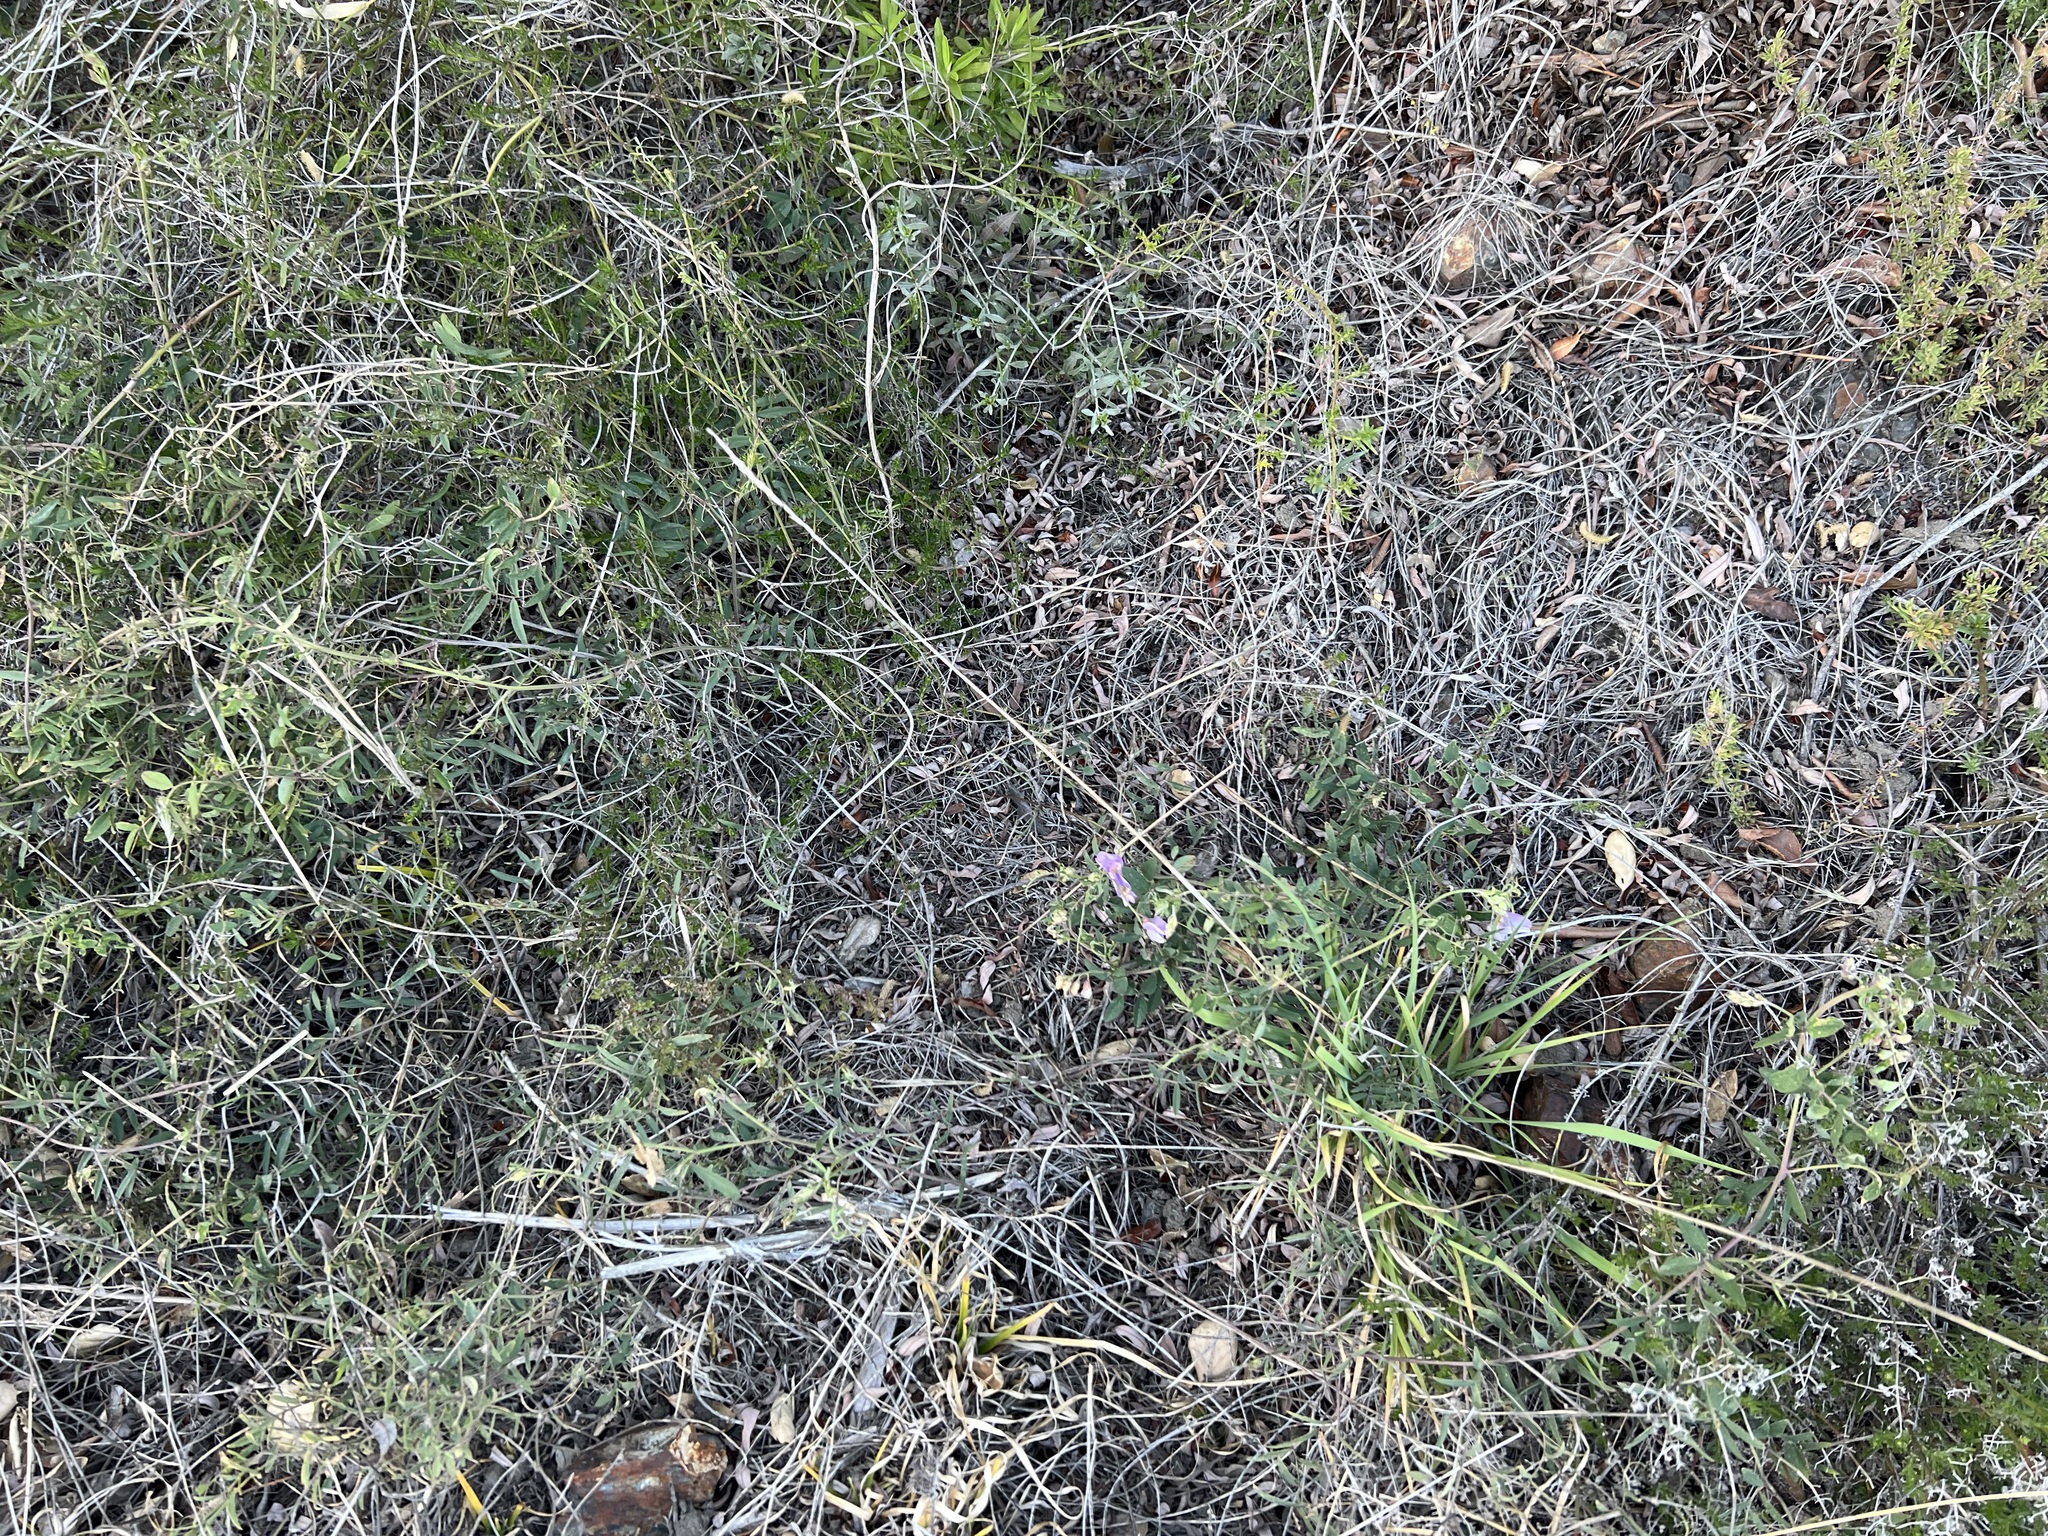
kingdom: Plantae
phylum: Tracheophyta
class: Magnoliopsida
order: Fabales
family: Fabaceae
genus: Lathyrus
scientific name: Lathyrus vestitus
